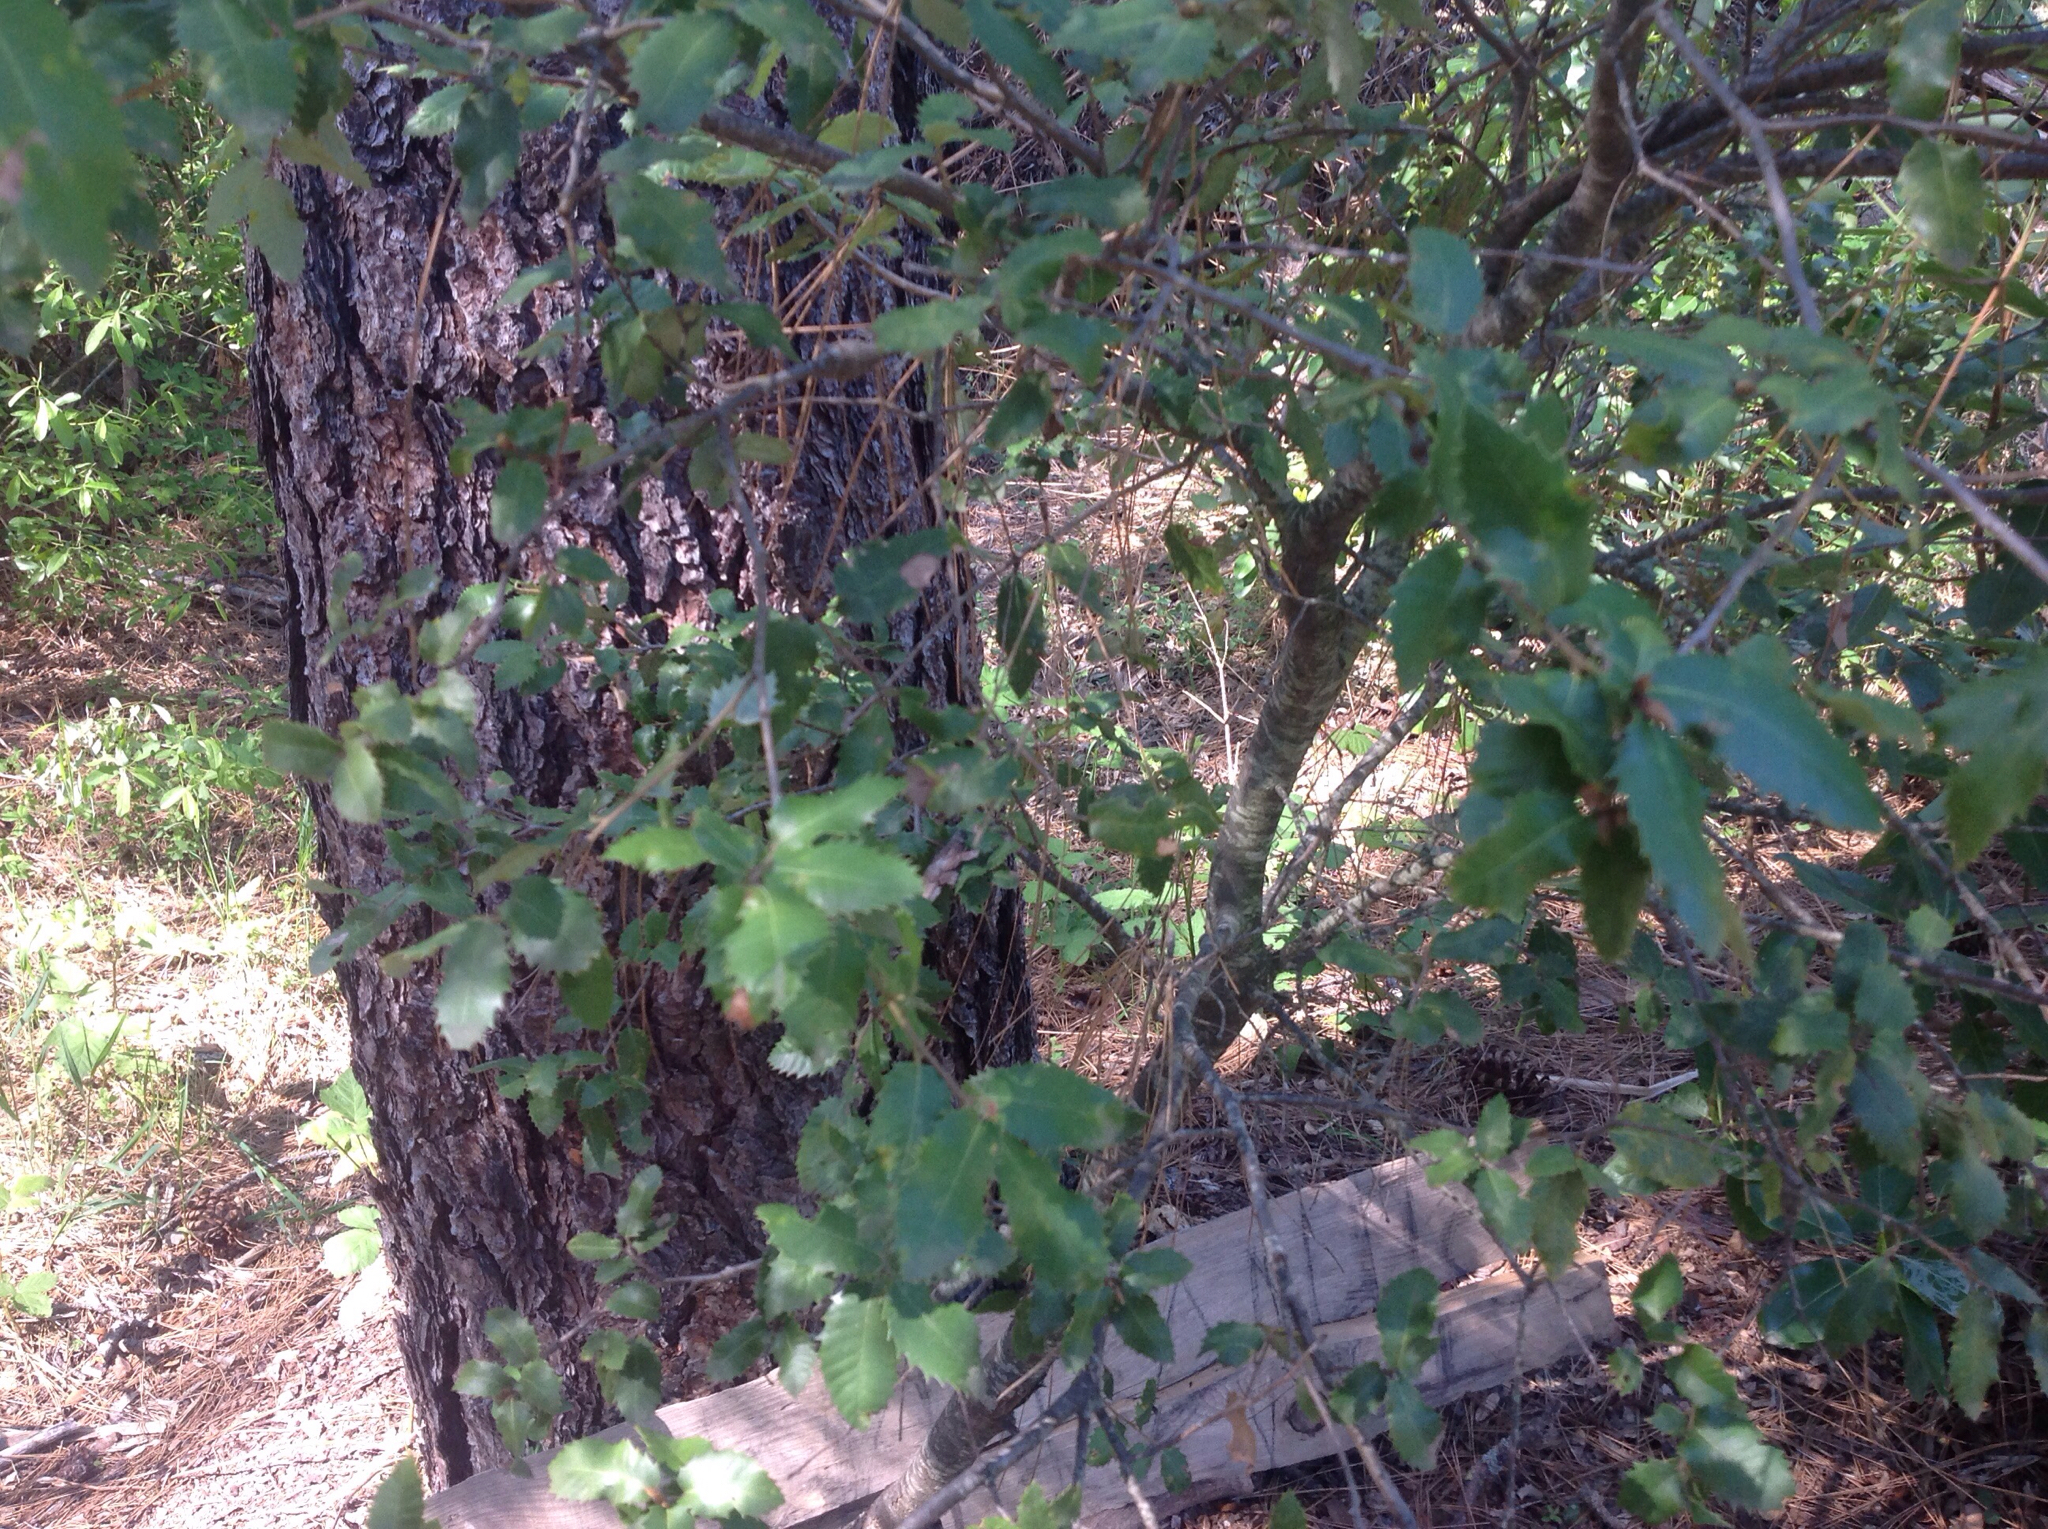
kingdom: Plantae
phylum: Tracheophyta
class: Magnoliopsida
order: Fagales
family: Fagaceae
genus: Quercus
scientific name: Quercus chrysolepis
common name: Canyon live oak
